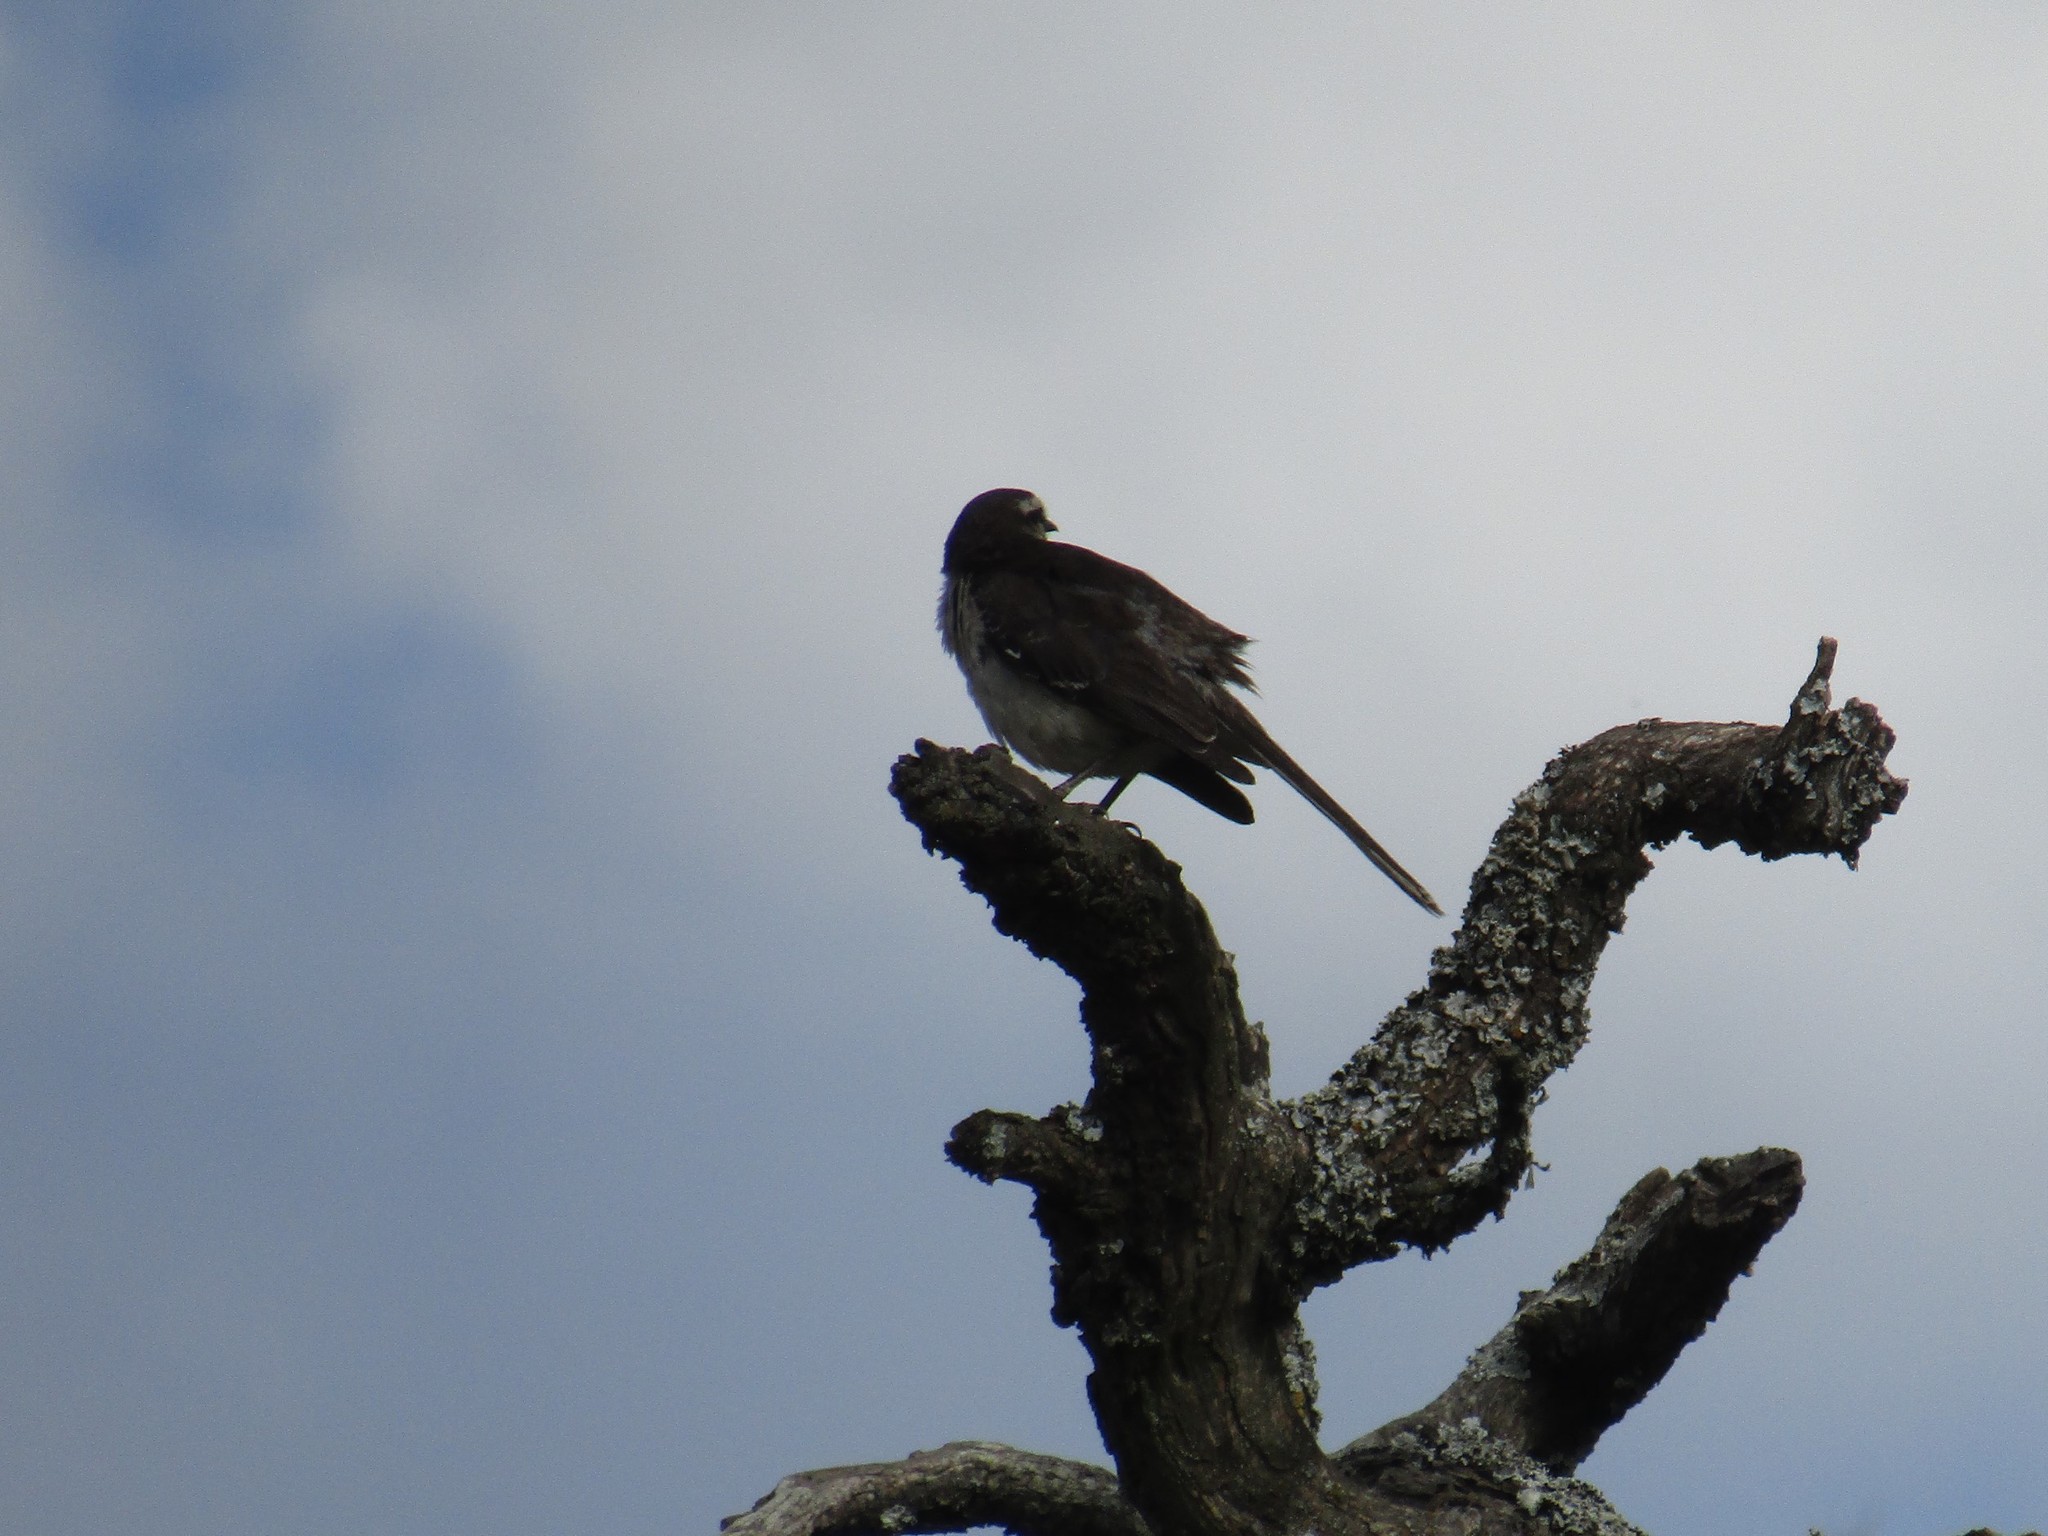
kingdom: Animalia
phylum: Chordata
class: Aves
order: Passeriformes
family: Mimidae
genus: Mimus
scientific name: Mimus saturninus
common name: Chalk-browed mockingbird
